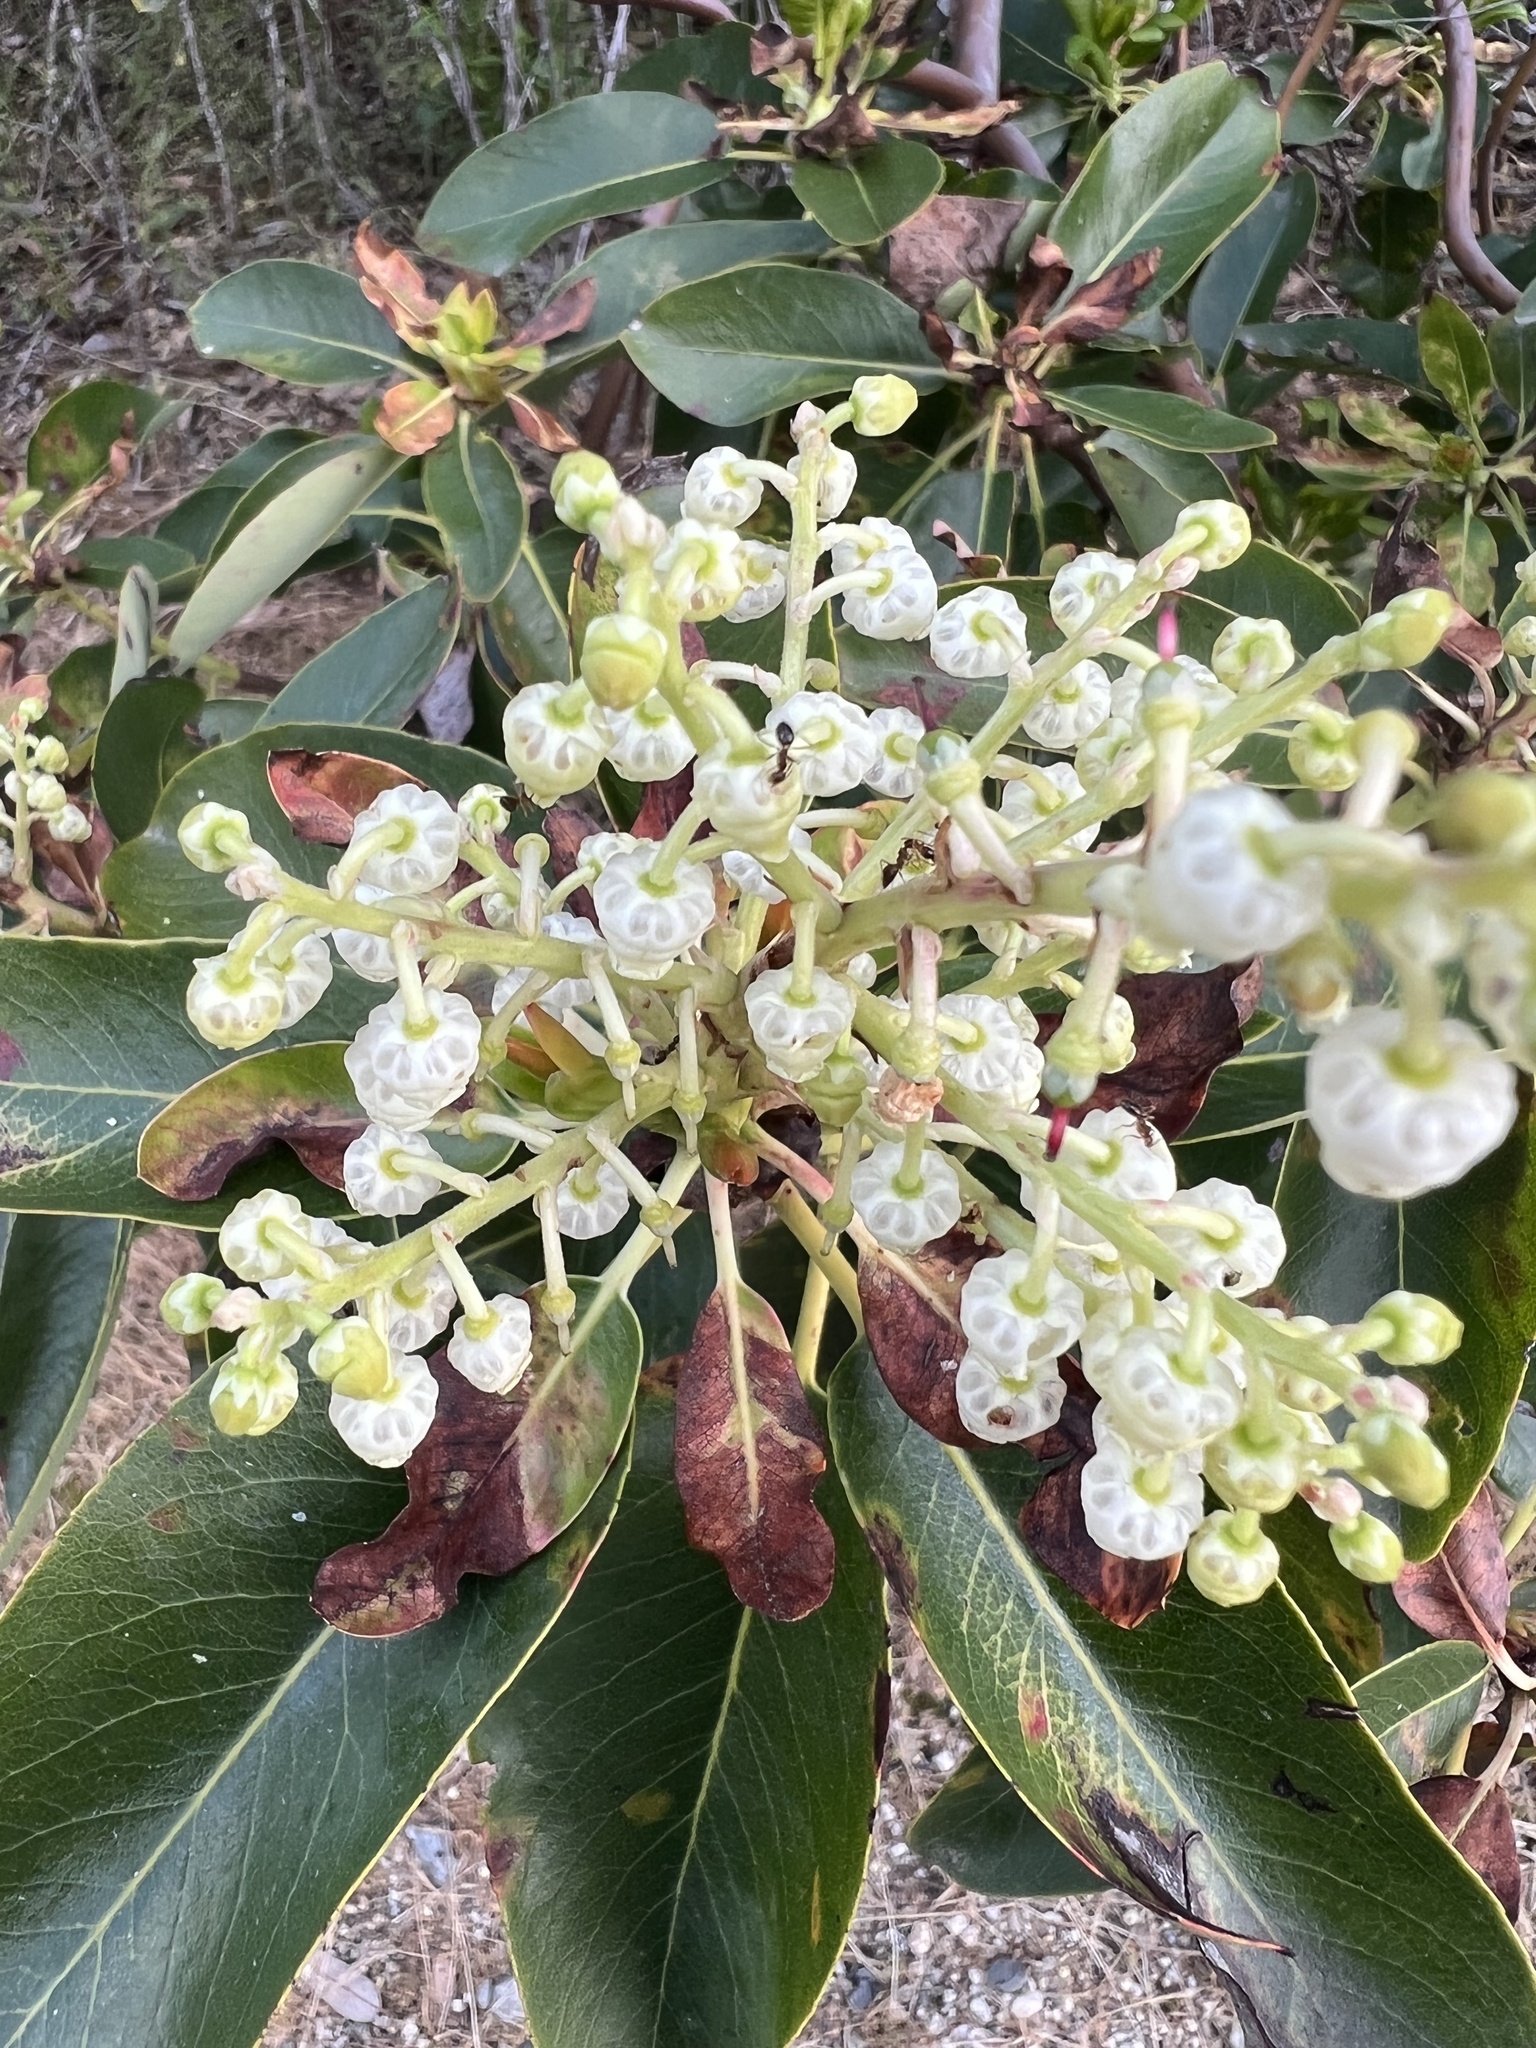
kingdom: Plantae
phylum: Tracheophyta
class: Magnoliopsida
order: Ericales
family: Ericaceae
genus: Arbutus
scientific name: Arbutus menziesii
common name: Pacific madrone
